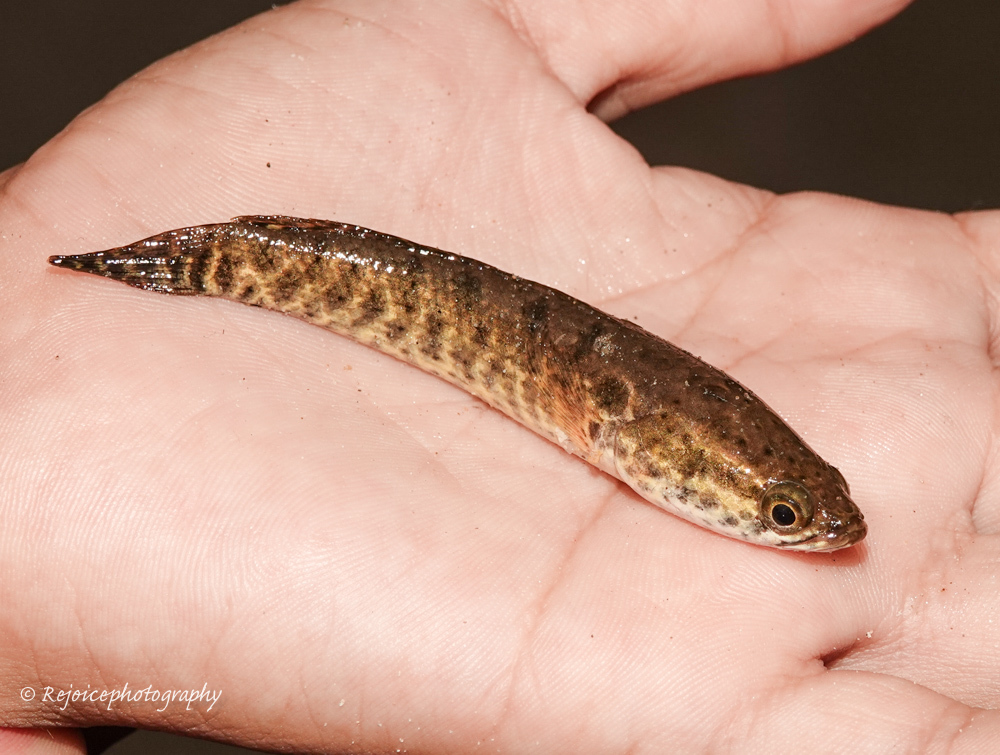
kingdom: Animalia
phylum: Chordata
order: Perciformes
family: Channidae
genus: Channa
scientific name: Channa punctata
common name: Spotted snakehead
